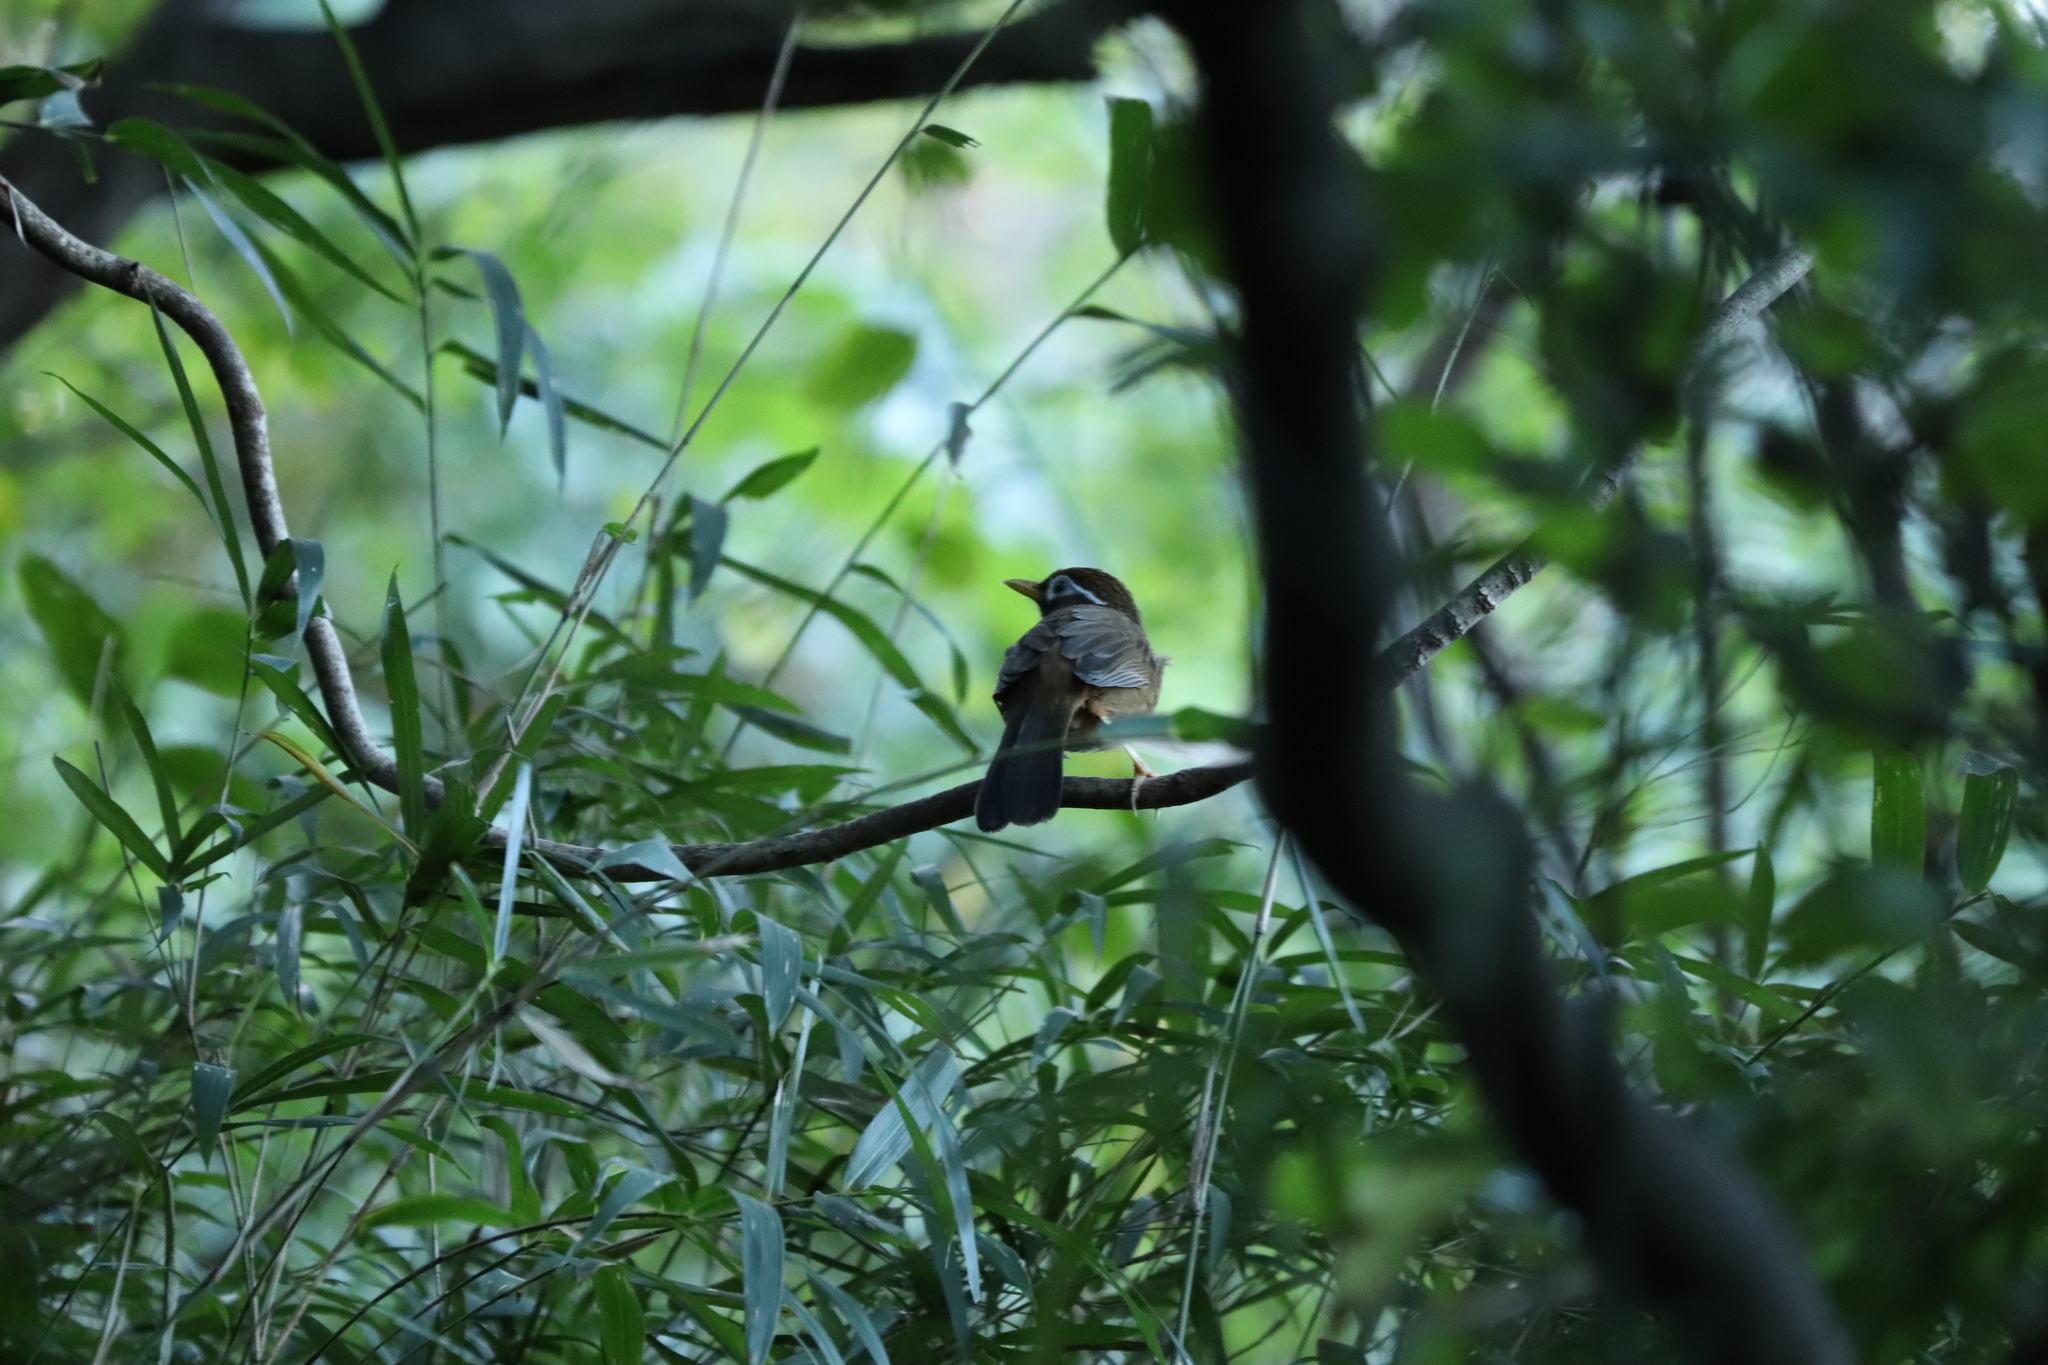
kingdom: Animalia
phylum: Chordata
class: Aves
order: Passeriformes
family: Leiothrichidae
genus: Garrulax
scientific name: Garrulax canorus
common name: Chinese hwamei
